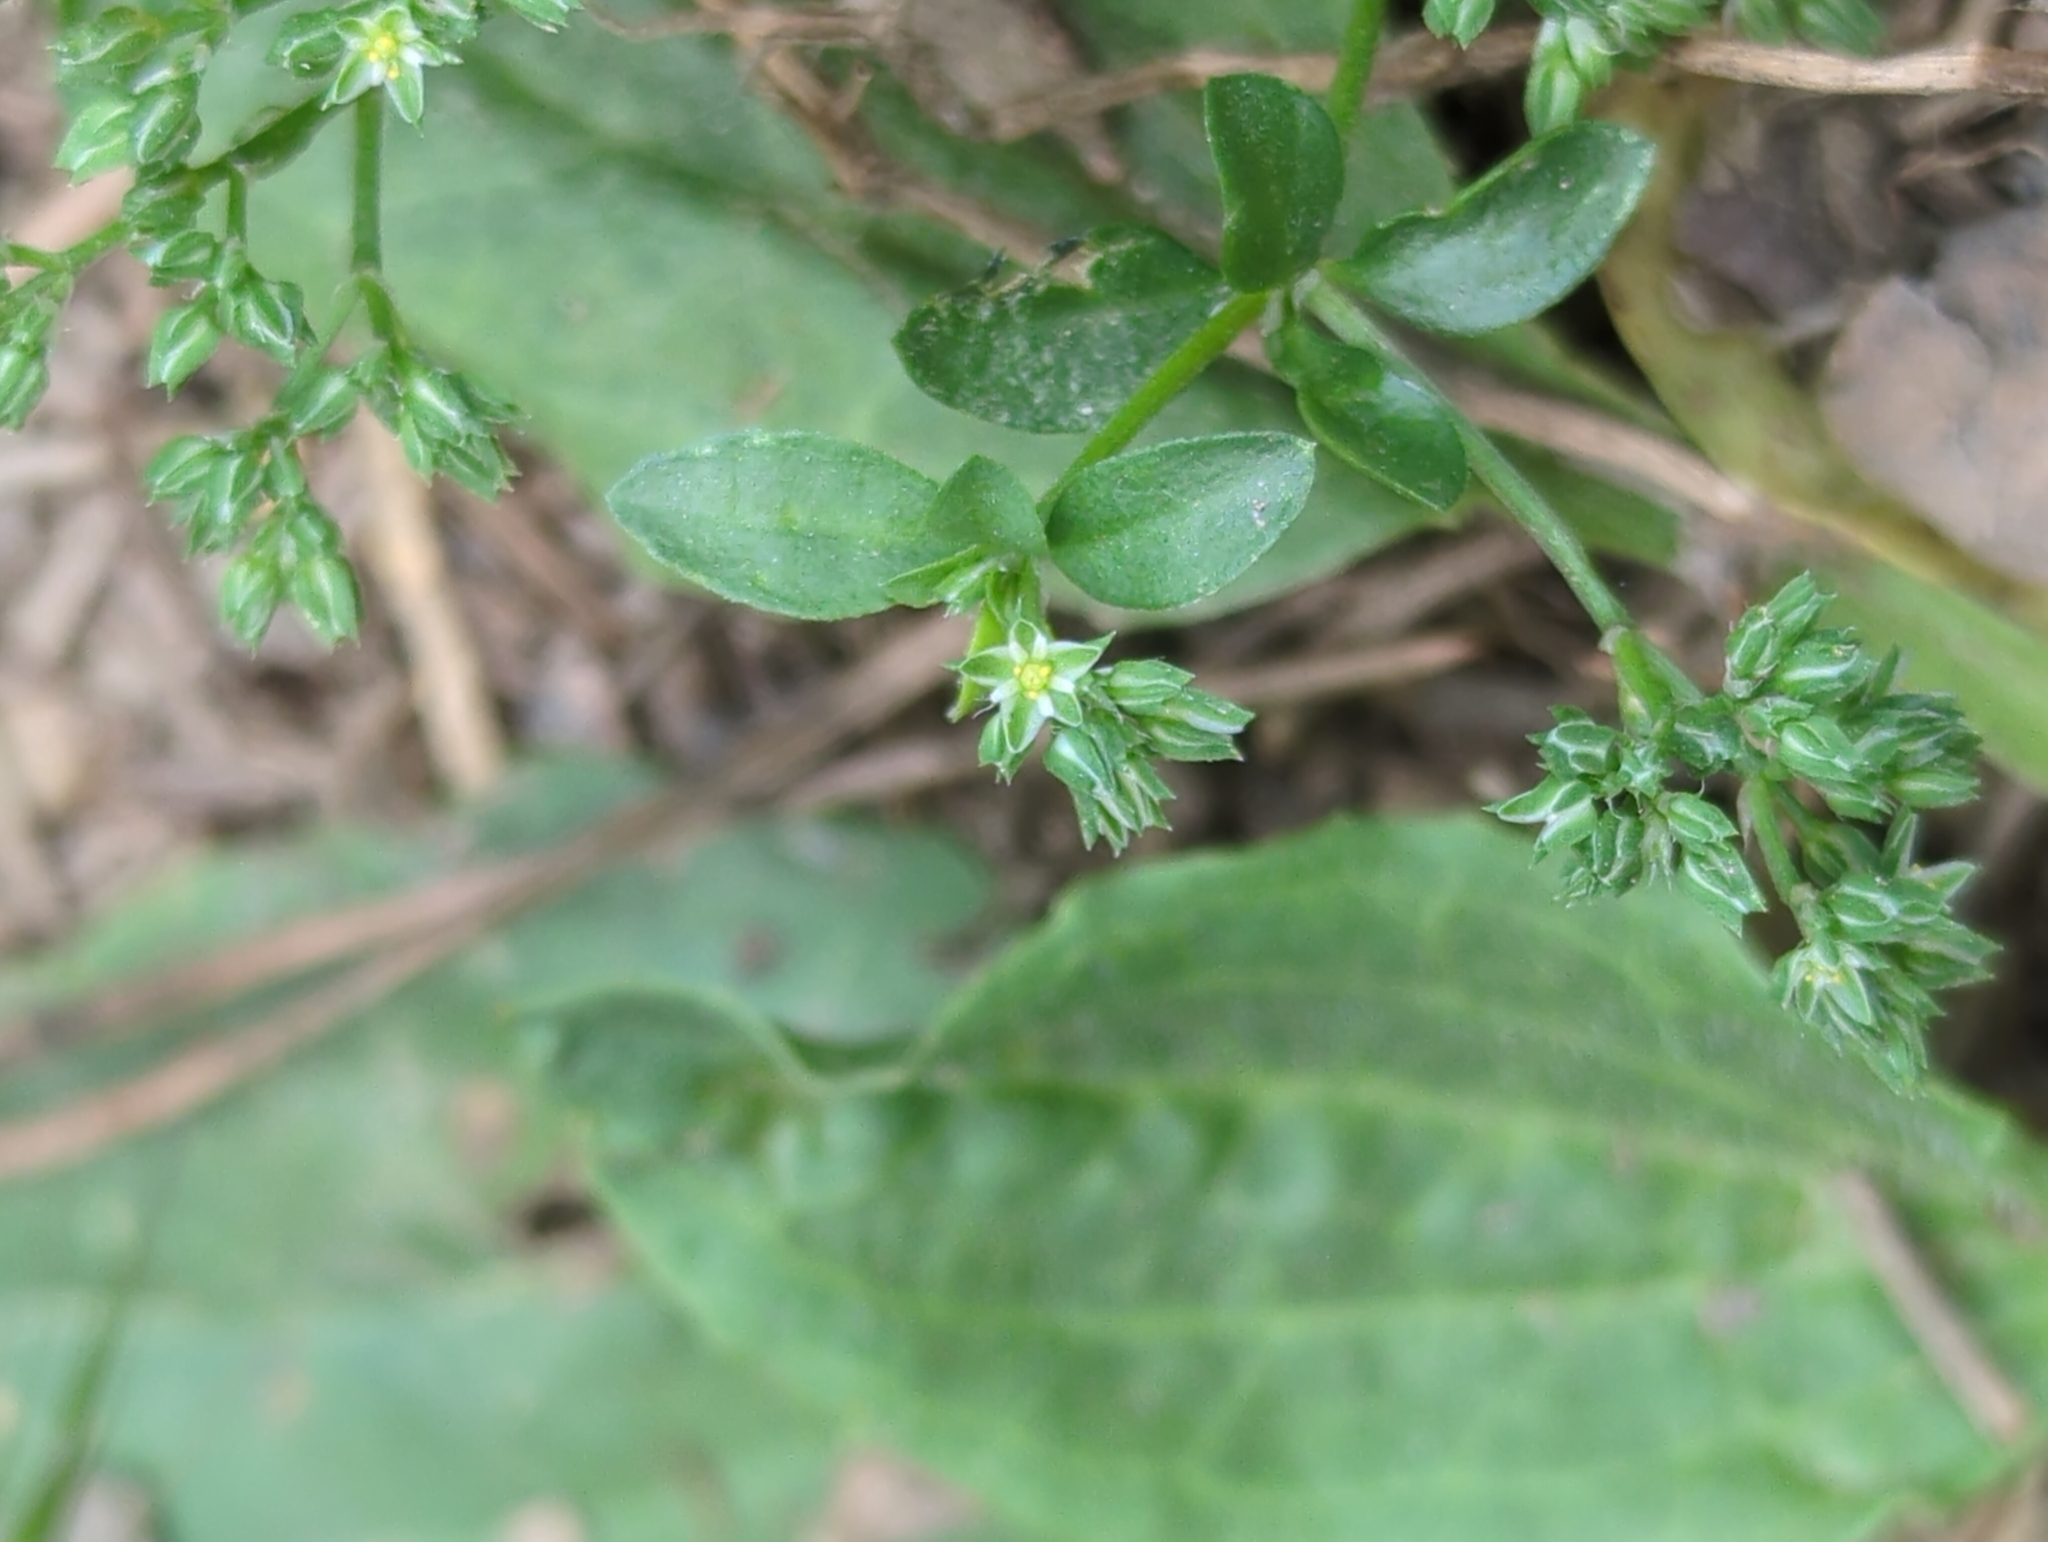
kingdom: Plantae
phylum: Tracheophyta
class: Magnoliopsida
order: Caryophyllales
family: Caryophyllaceae
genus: Polycarpon
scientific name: Polycarpon tetraphyllum
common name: Four-leaved all-seed
